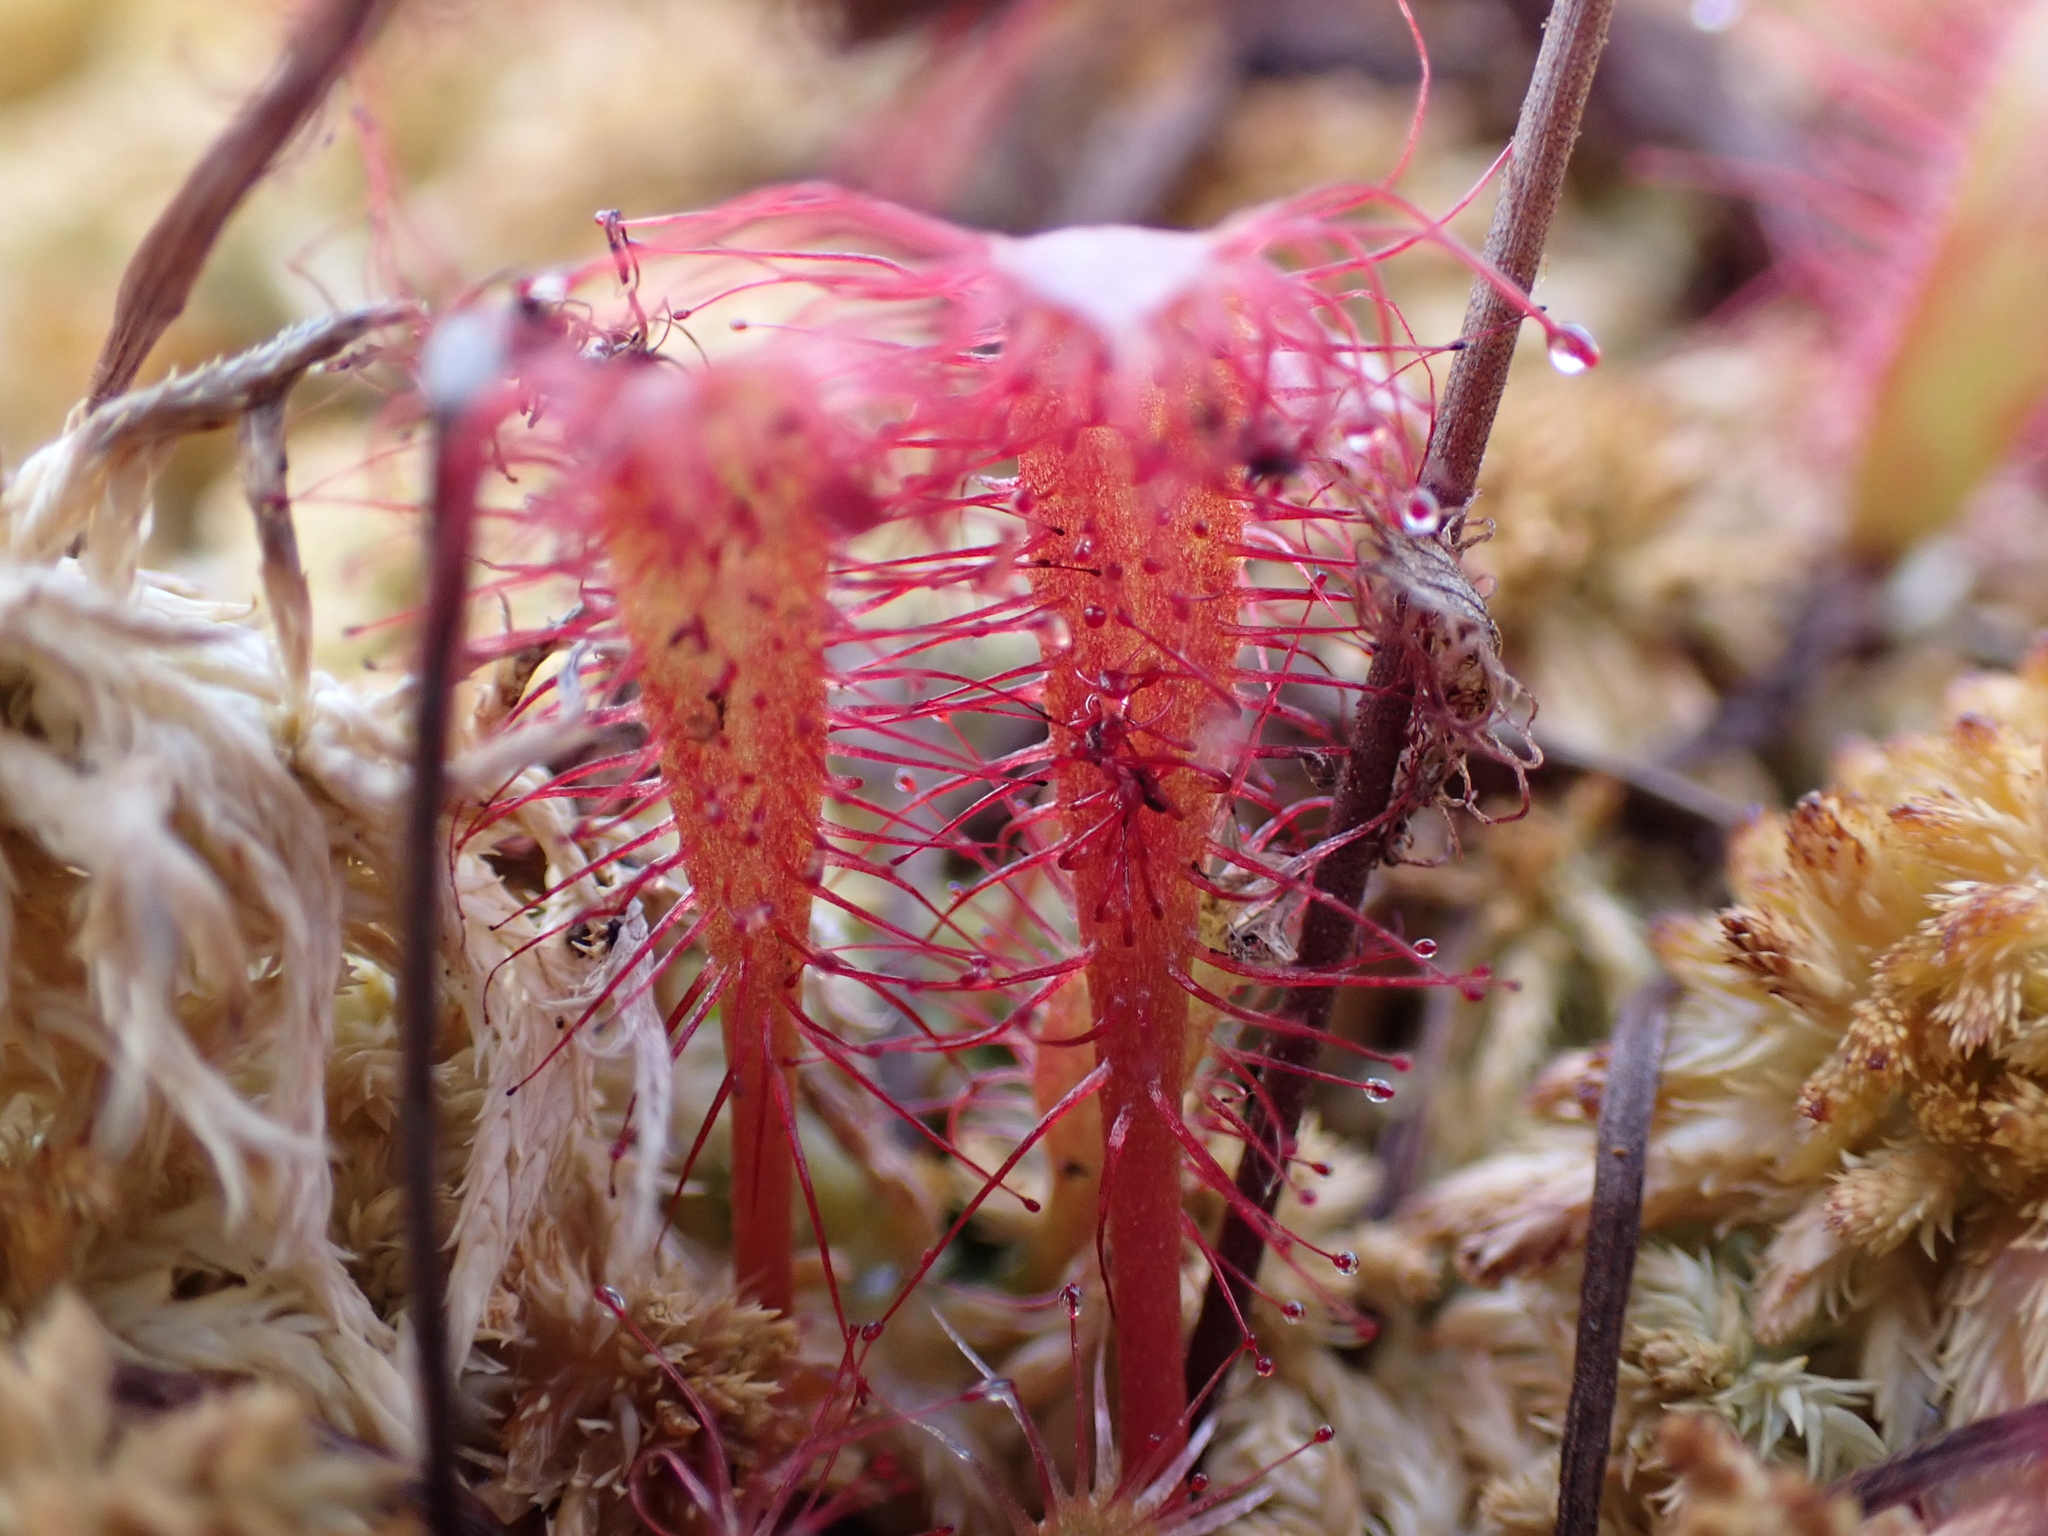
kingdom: Plantae
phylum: Tracheophyta
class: Magnoliopsida
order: Caryophyllales
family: Droseraceae
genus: Drosera
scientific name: Drosera anglica
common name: Great sundew
